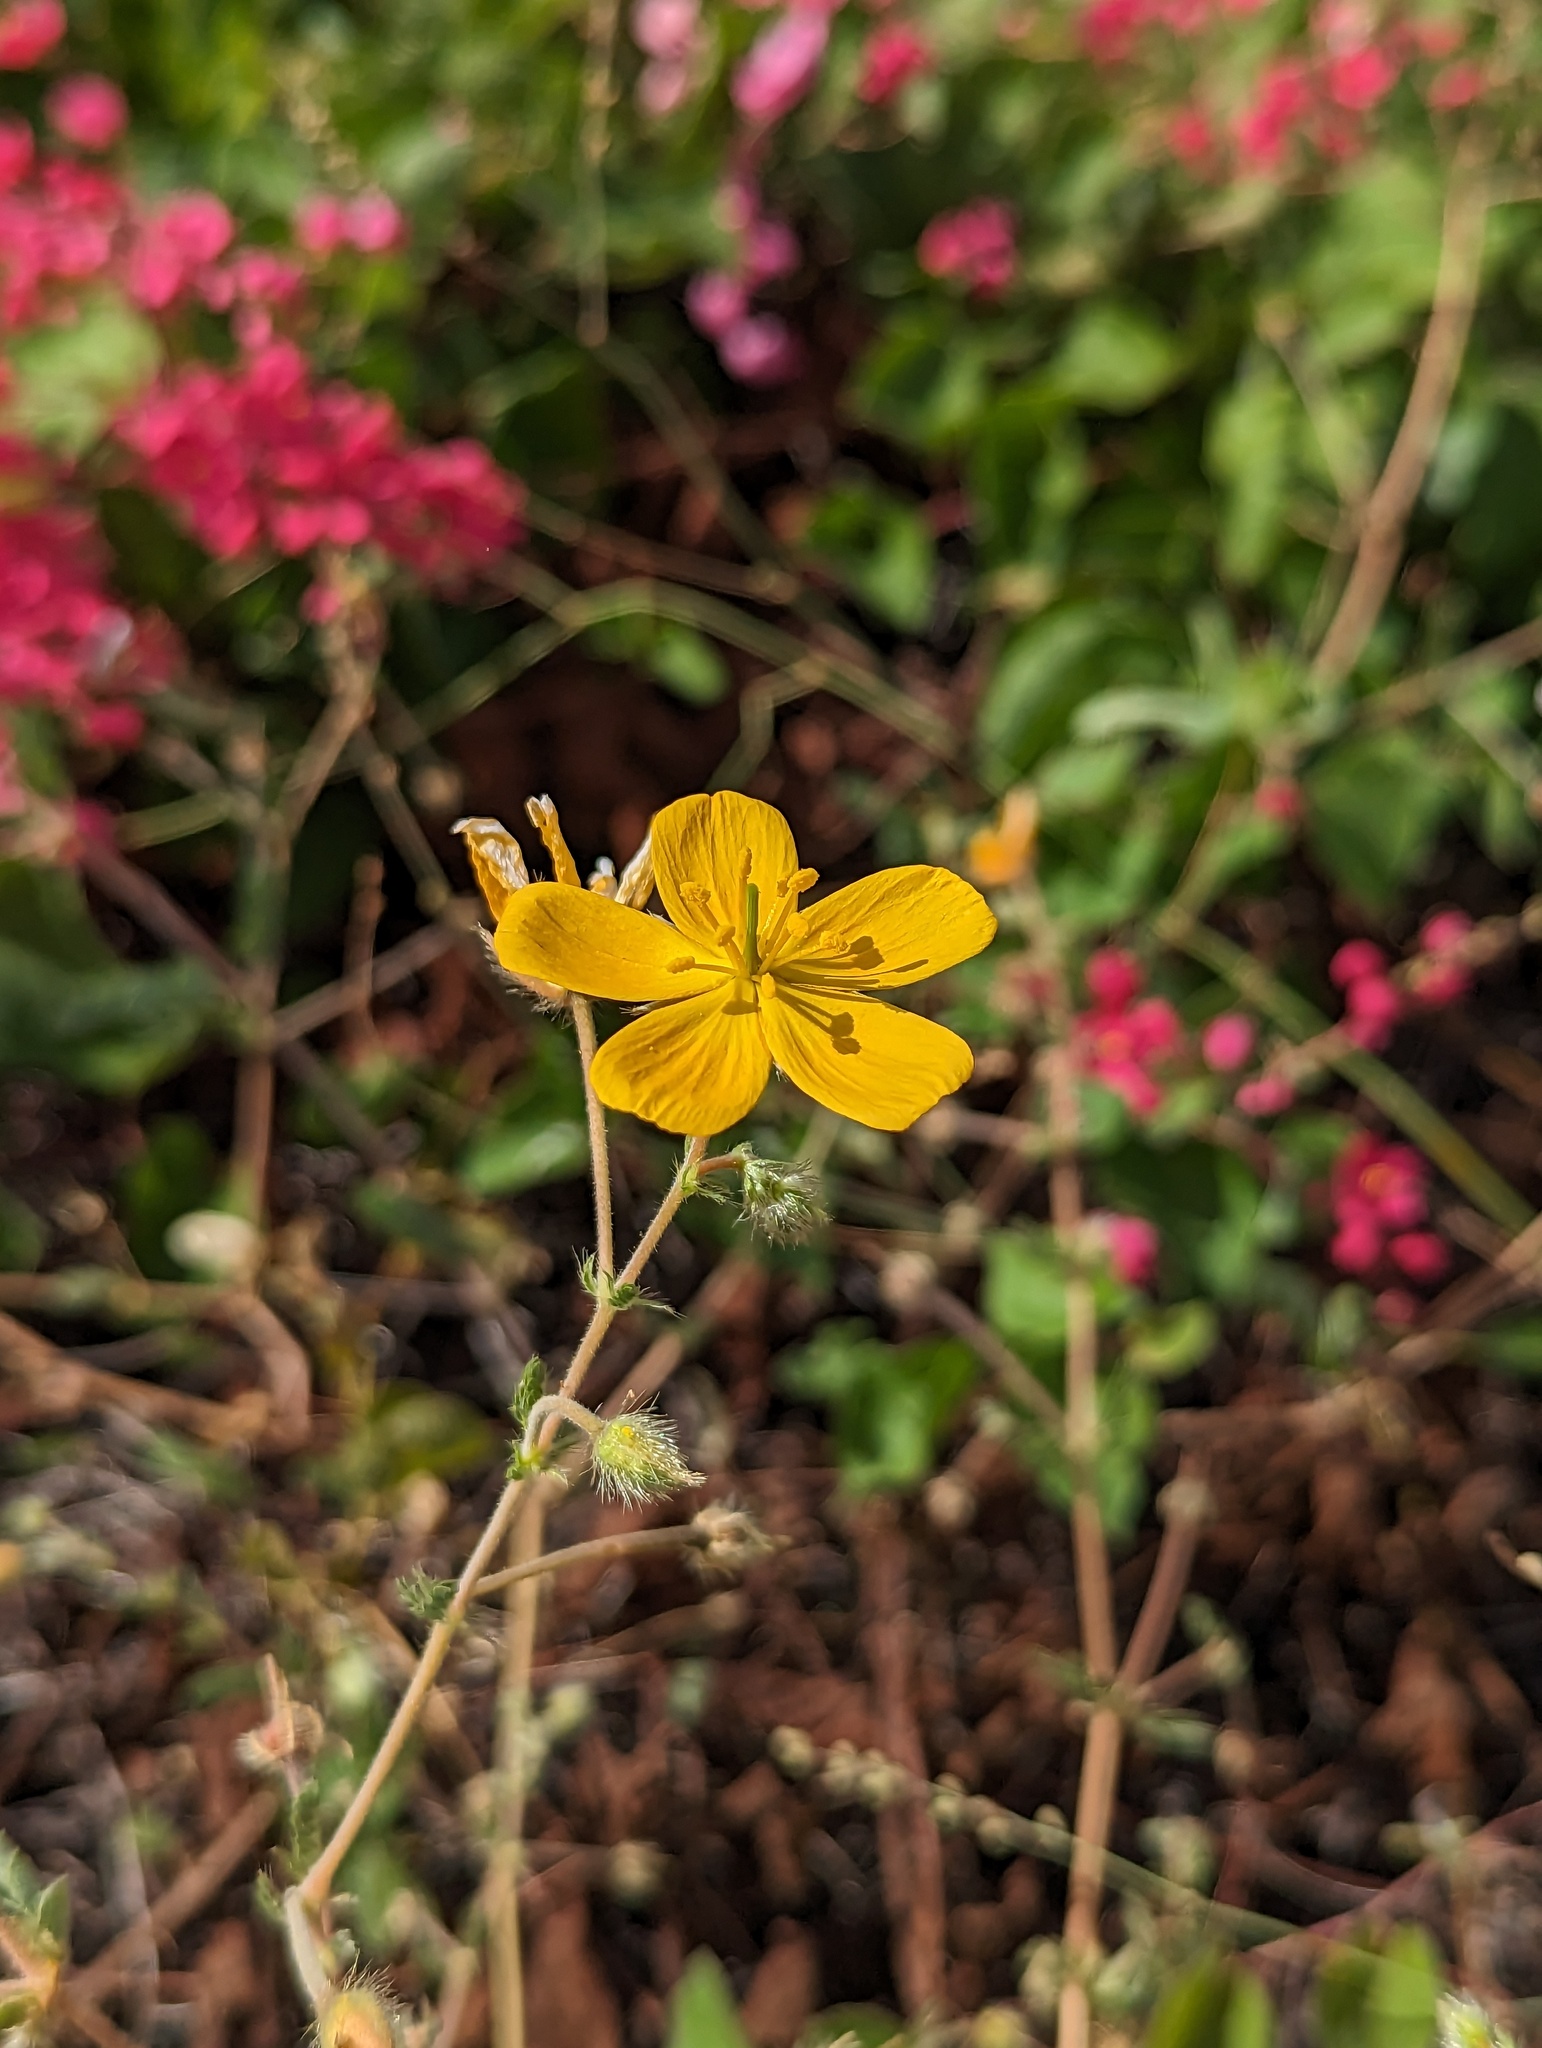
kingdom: Plantae
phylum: Tracheophyta
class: Magnoliopsida
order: Zygophyllales
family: Zygophyllaceae
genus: Kallstroemia
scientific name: Kallstroemia peninsularis
